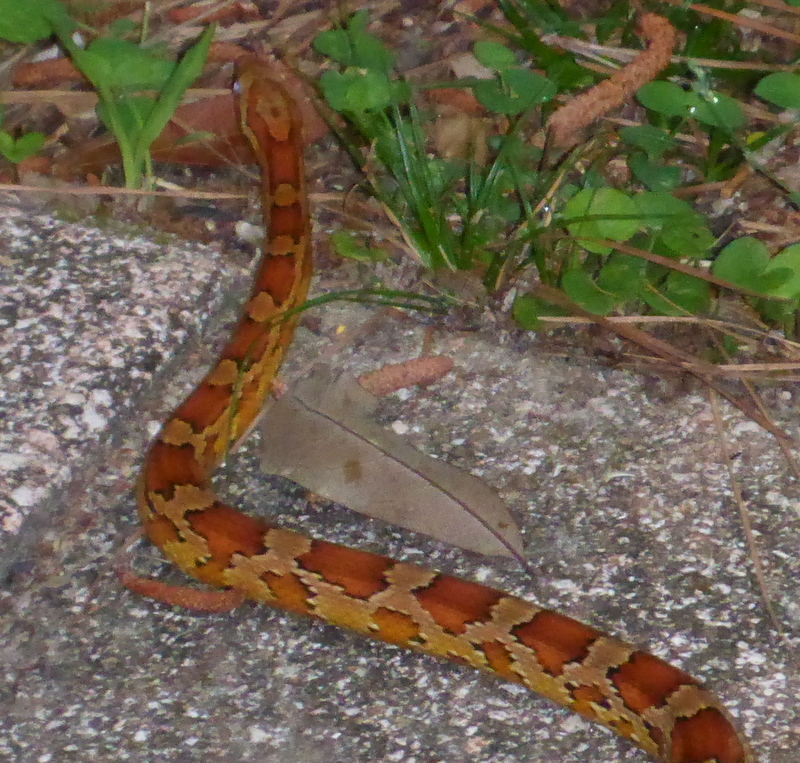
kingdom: Animalia
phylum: Chordata
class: Squamata
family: Colubridae
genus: Pantherophis
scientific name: Pantherophis guttatus
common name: Red cornsnake
